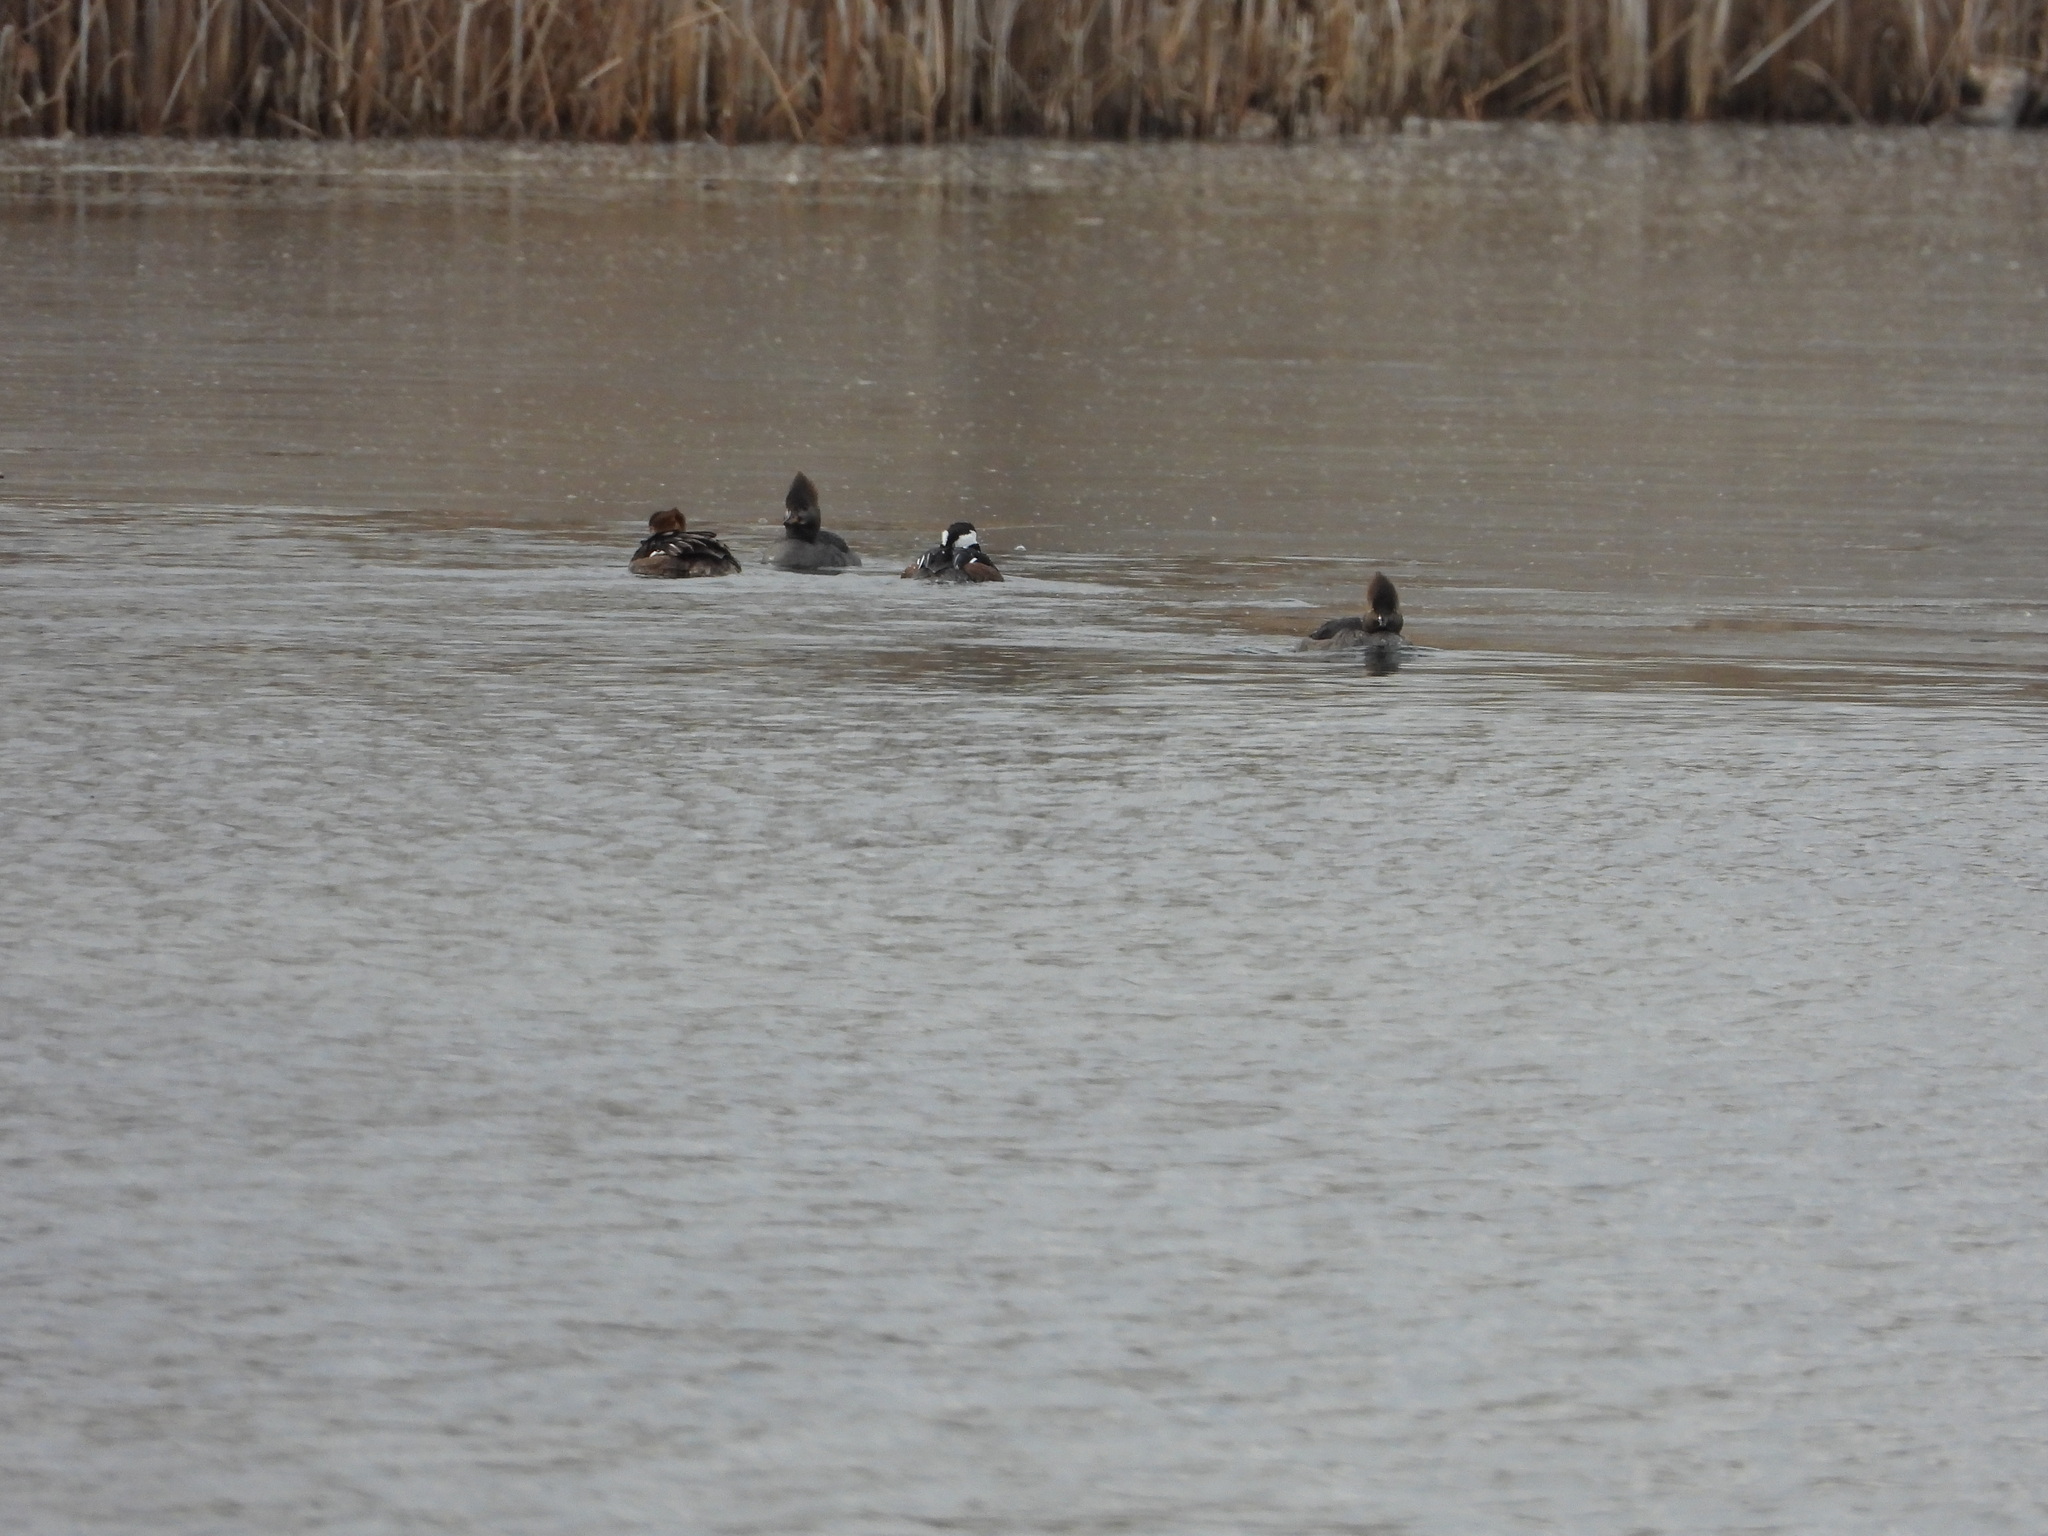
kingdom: Animalia
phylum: Chordata
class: Aves
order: Anseriformes
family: Anatidae
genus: Lophodytes
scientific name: Lophodytes cucullatus
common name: Hooded merganser
